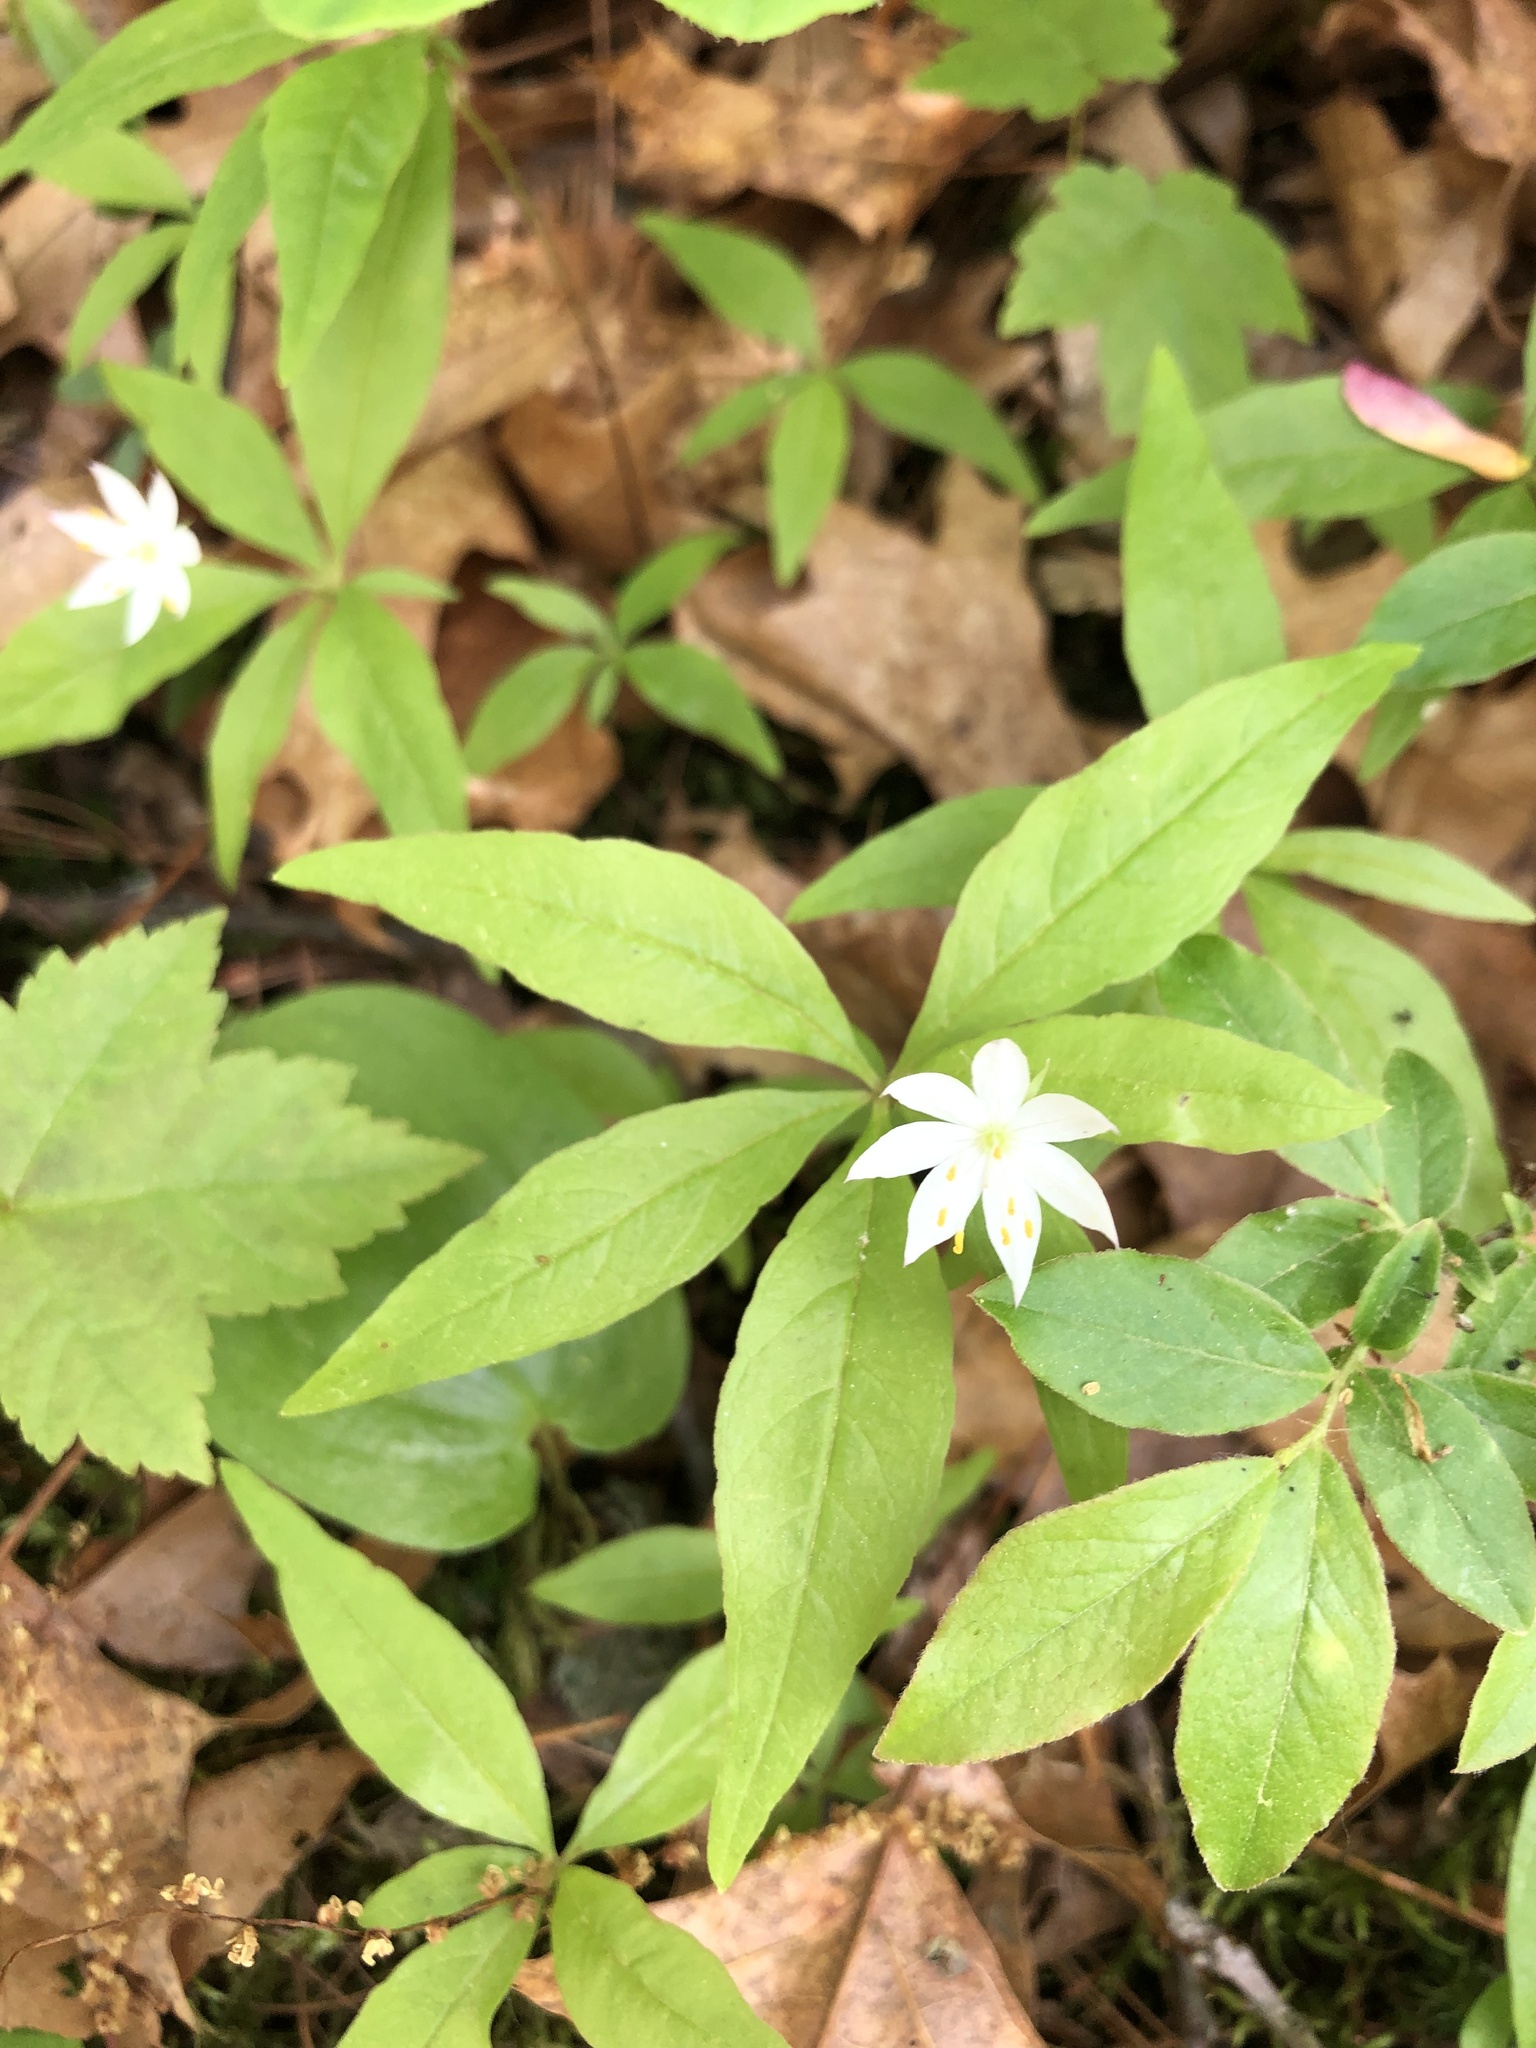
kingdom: Plantae
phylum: Tracheophyta
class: Magnoliopsida
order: Ericales
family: Primulaceae
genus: Lysimachia
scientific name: Lysimachia borealis
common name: American starflower
